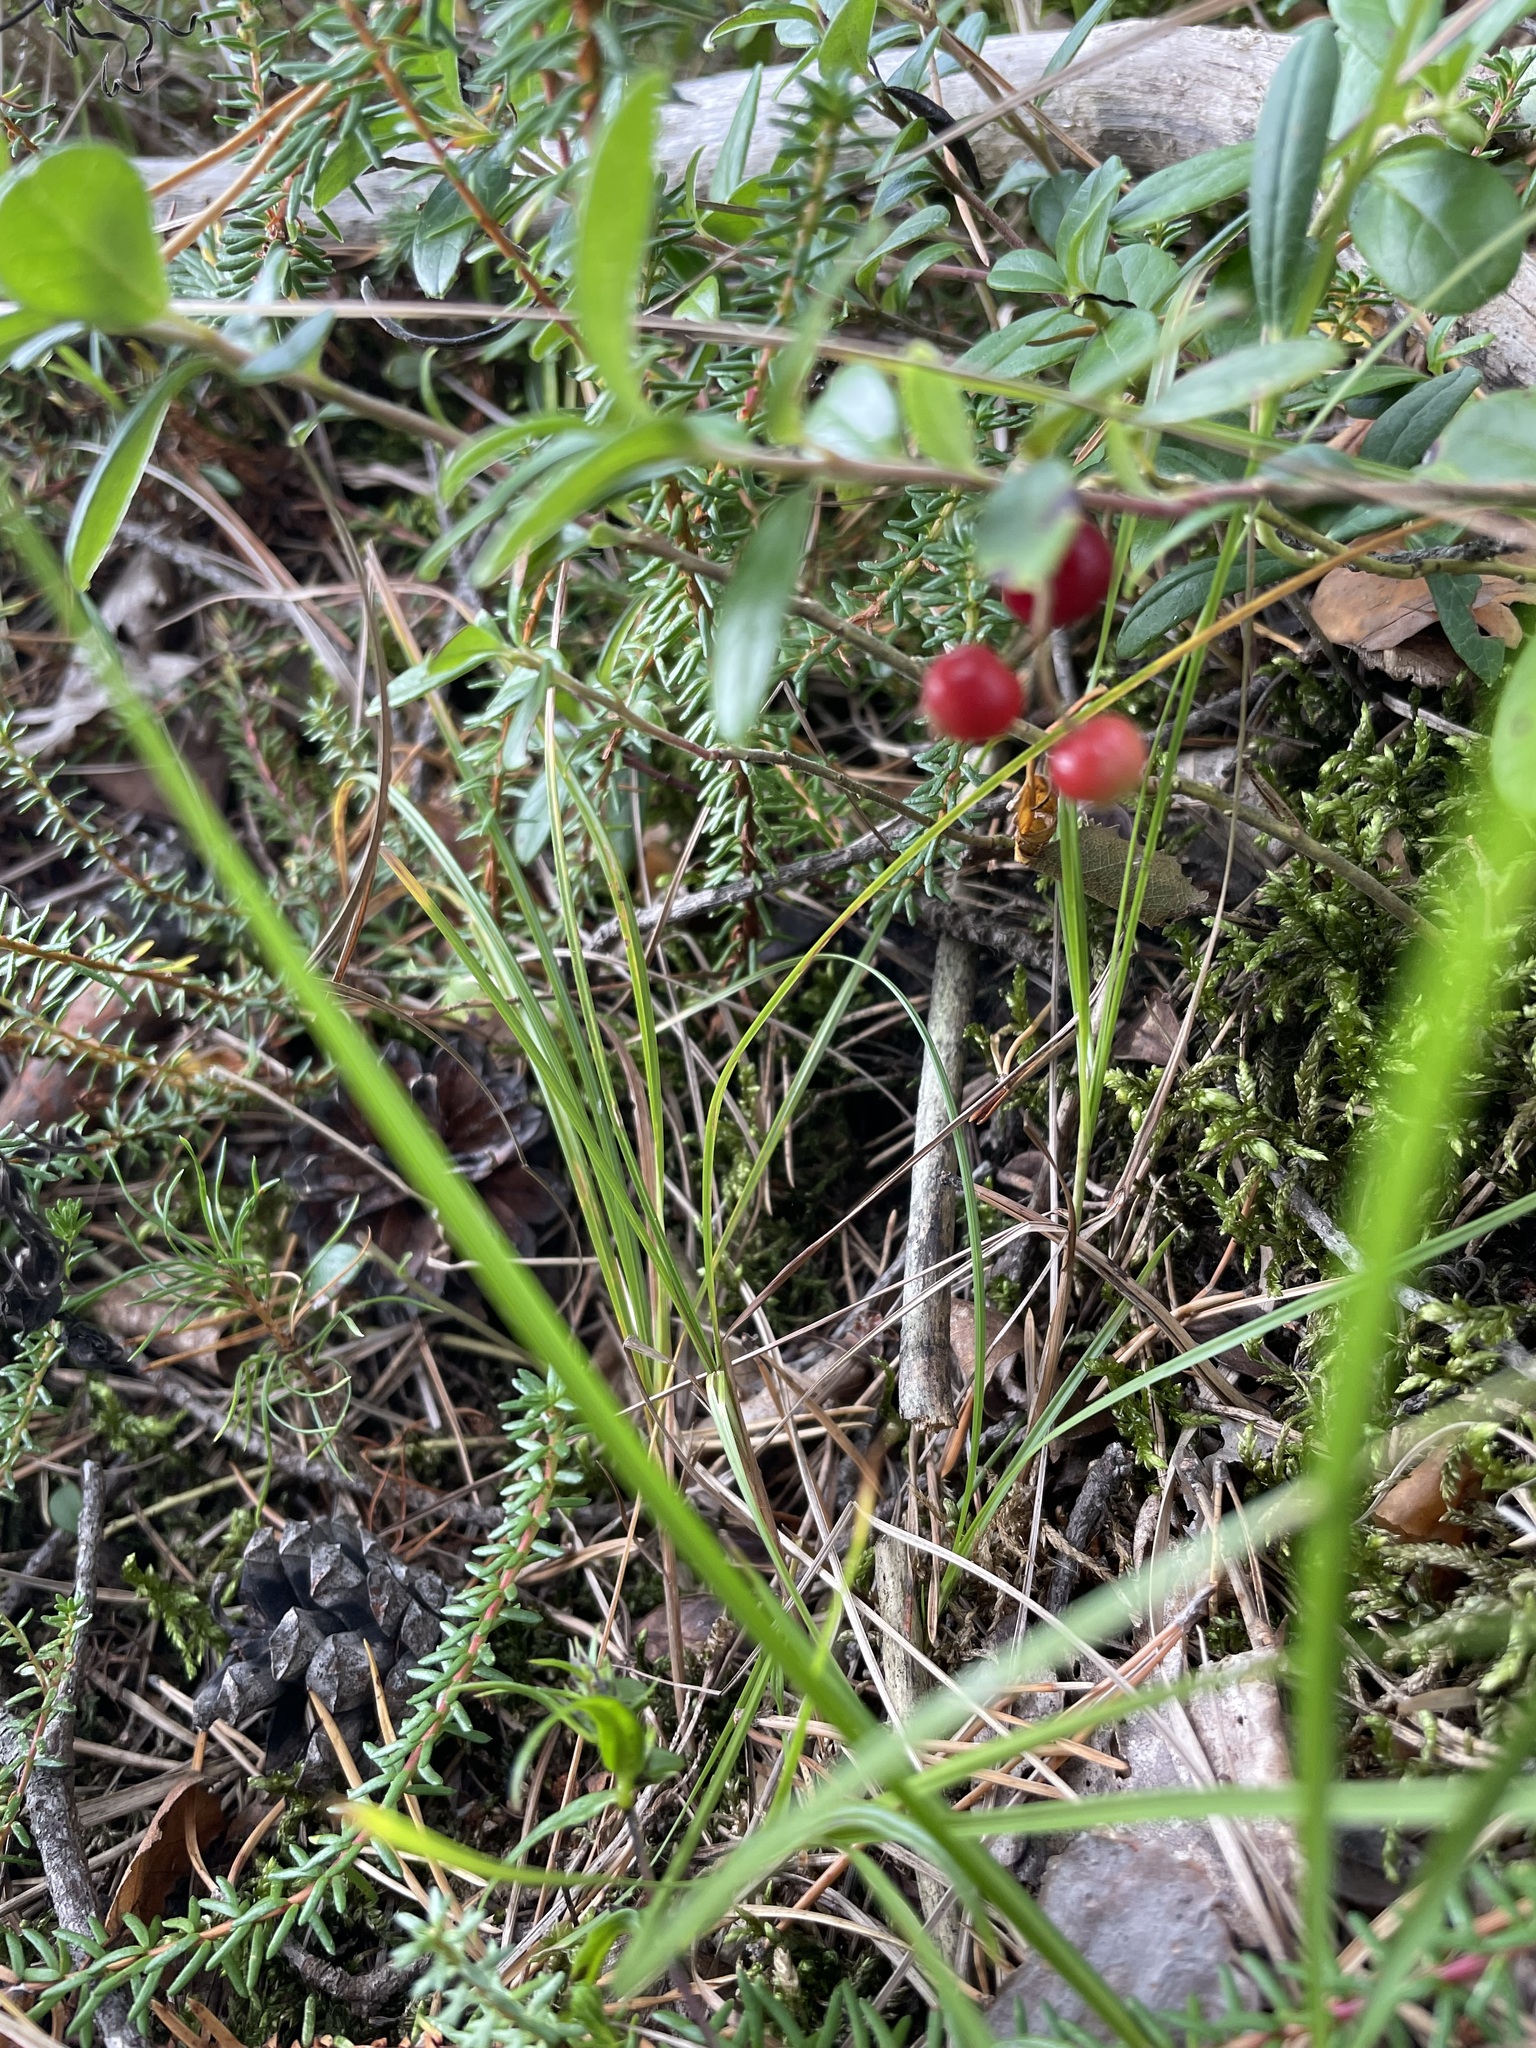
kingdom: Plantae
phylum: Tracheophyta
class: Magnoliopsida
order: Ericales
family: Ericaceae
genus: Vaccinium
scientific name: Vaccinium vitis-idaea
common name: Cowberry
